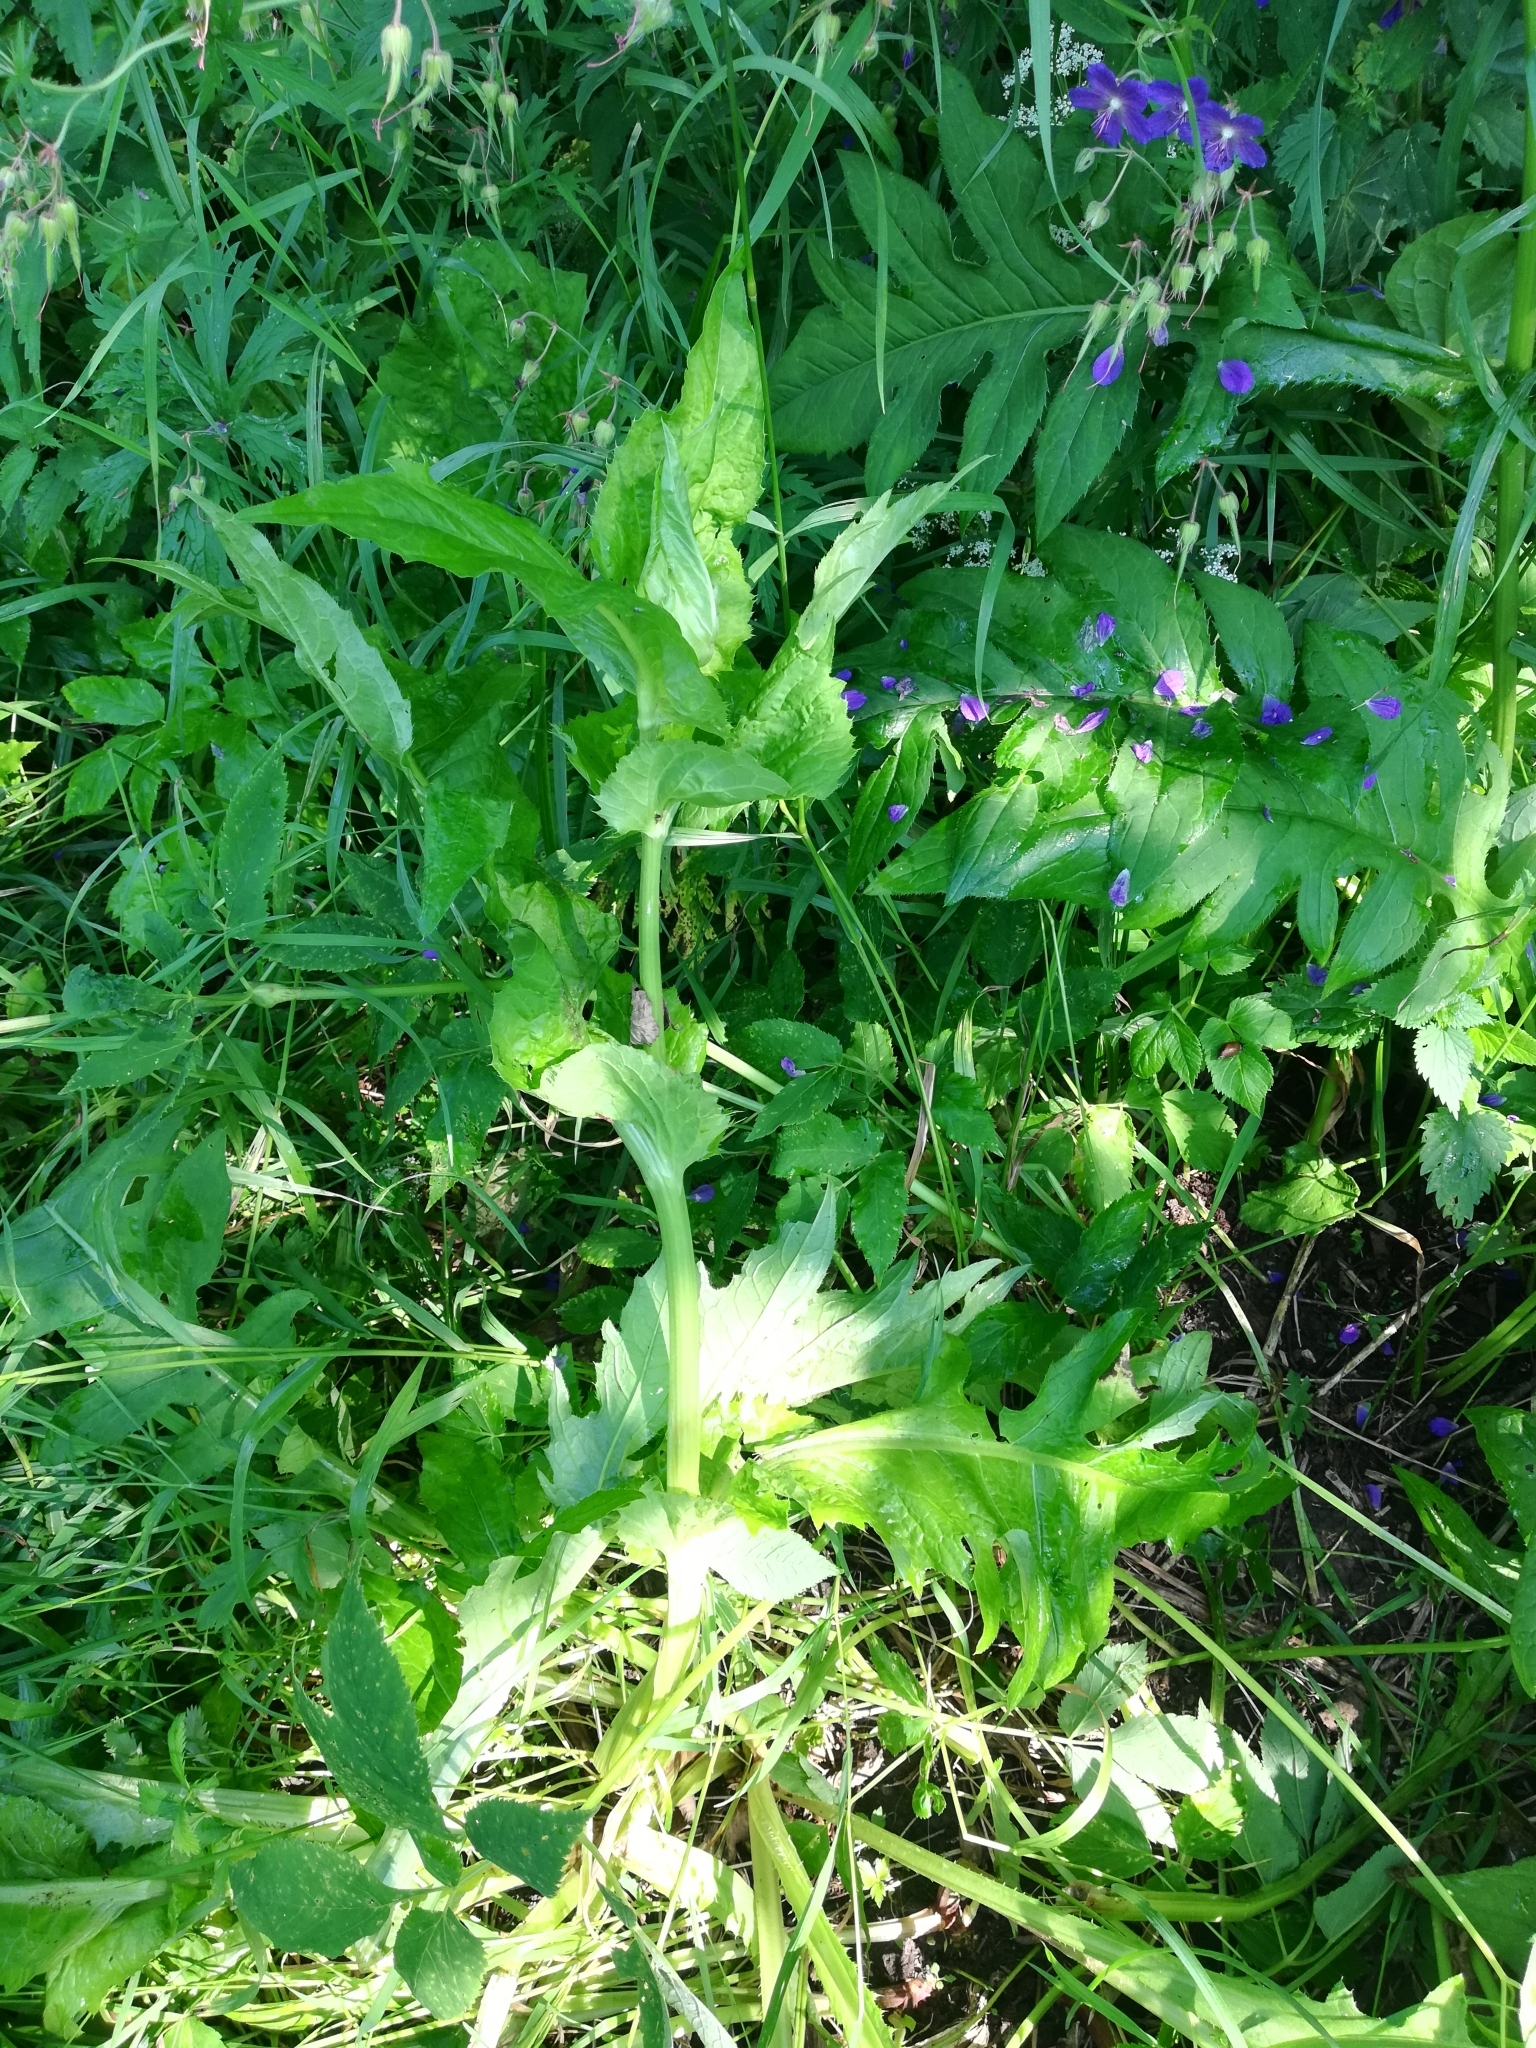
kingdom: Plantae
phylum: Tracheophyta
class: Magnoliopsida
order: Asterales
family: Asteraceae
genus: Cirsium
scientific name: Cirsium oleraceum
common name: Cabbage thistle
